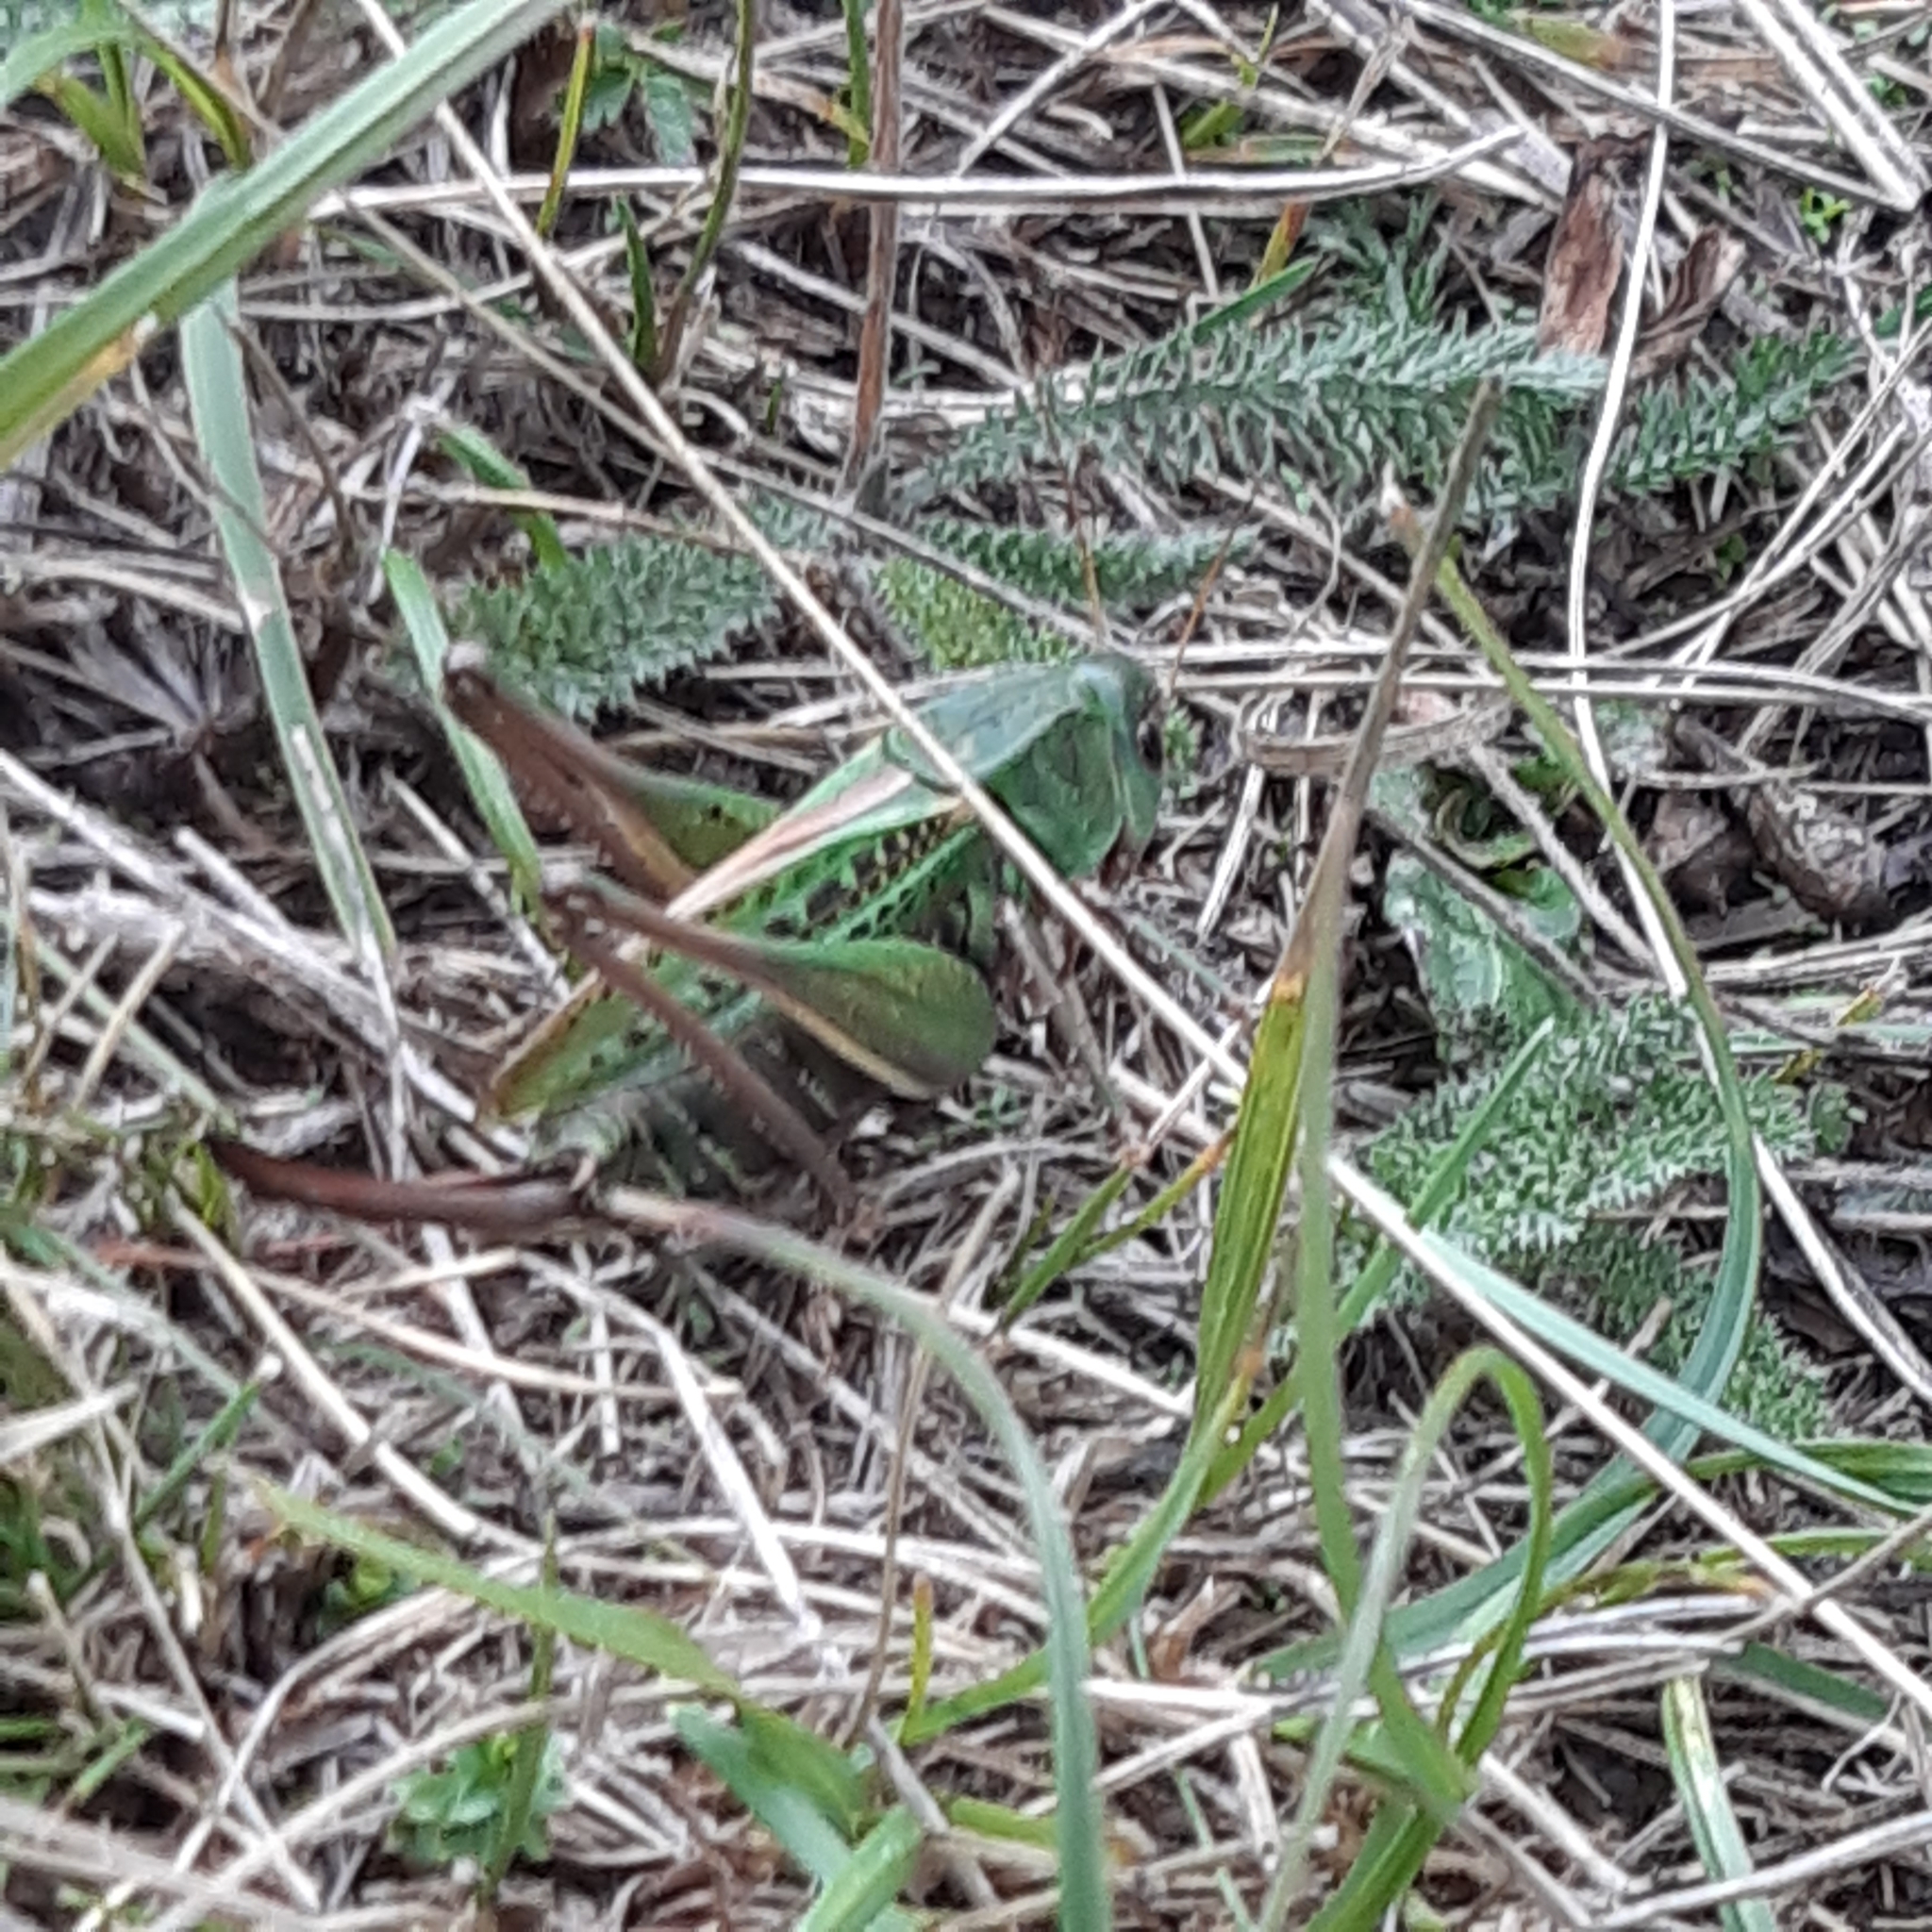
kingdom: Animalia
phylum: Arthropoda
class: Insecta
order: Orthoptera
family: Tettigoniidae
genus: Decticus
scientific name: Decticus verrucivorus
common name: Wart-biter
